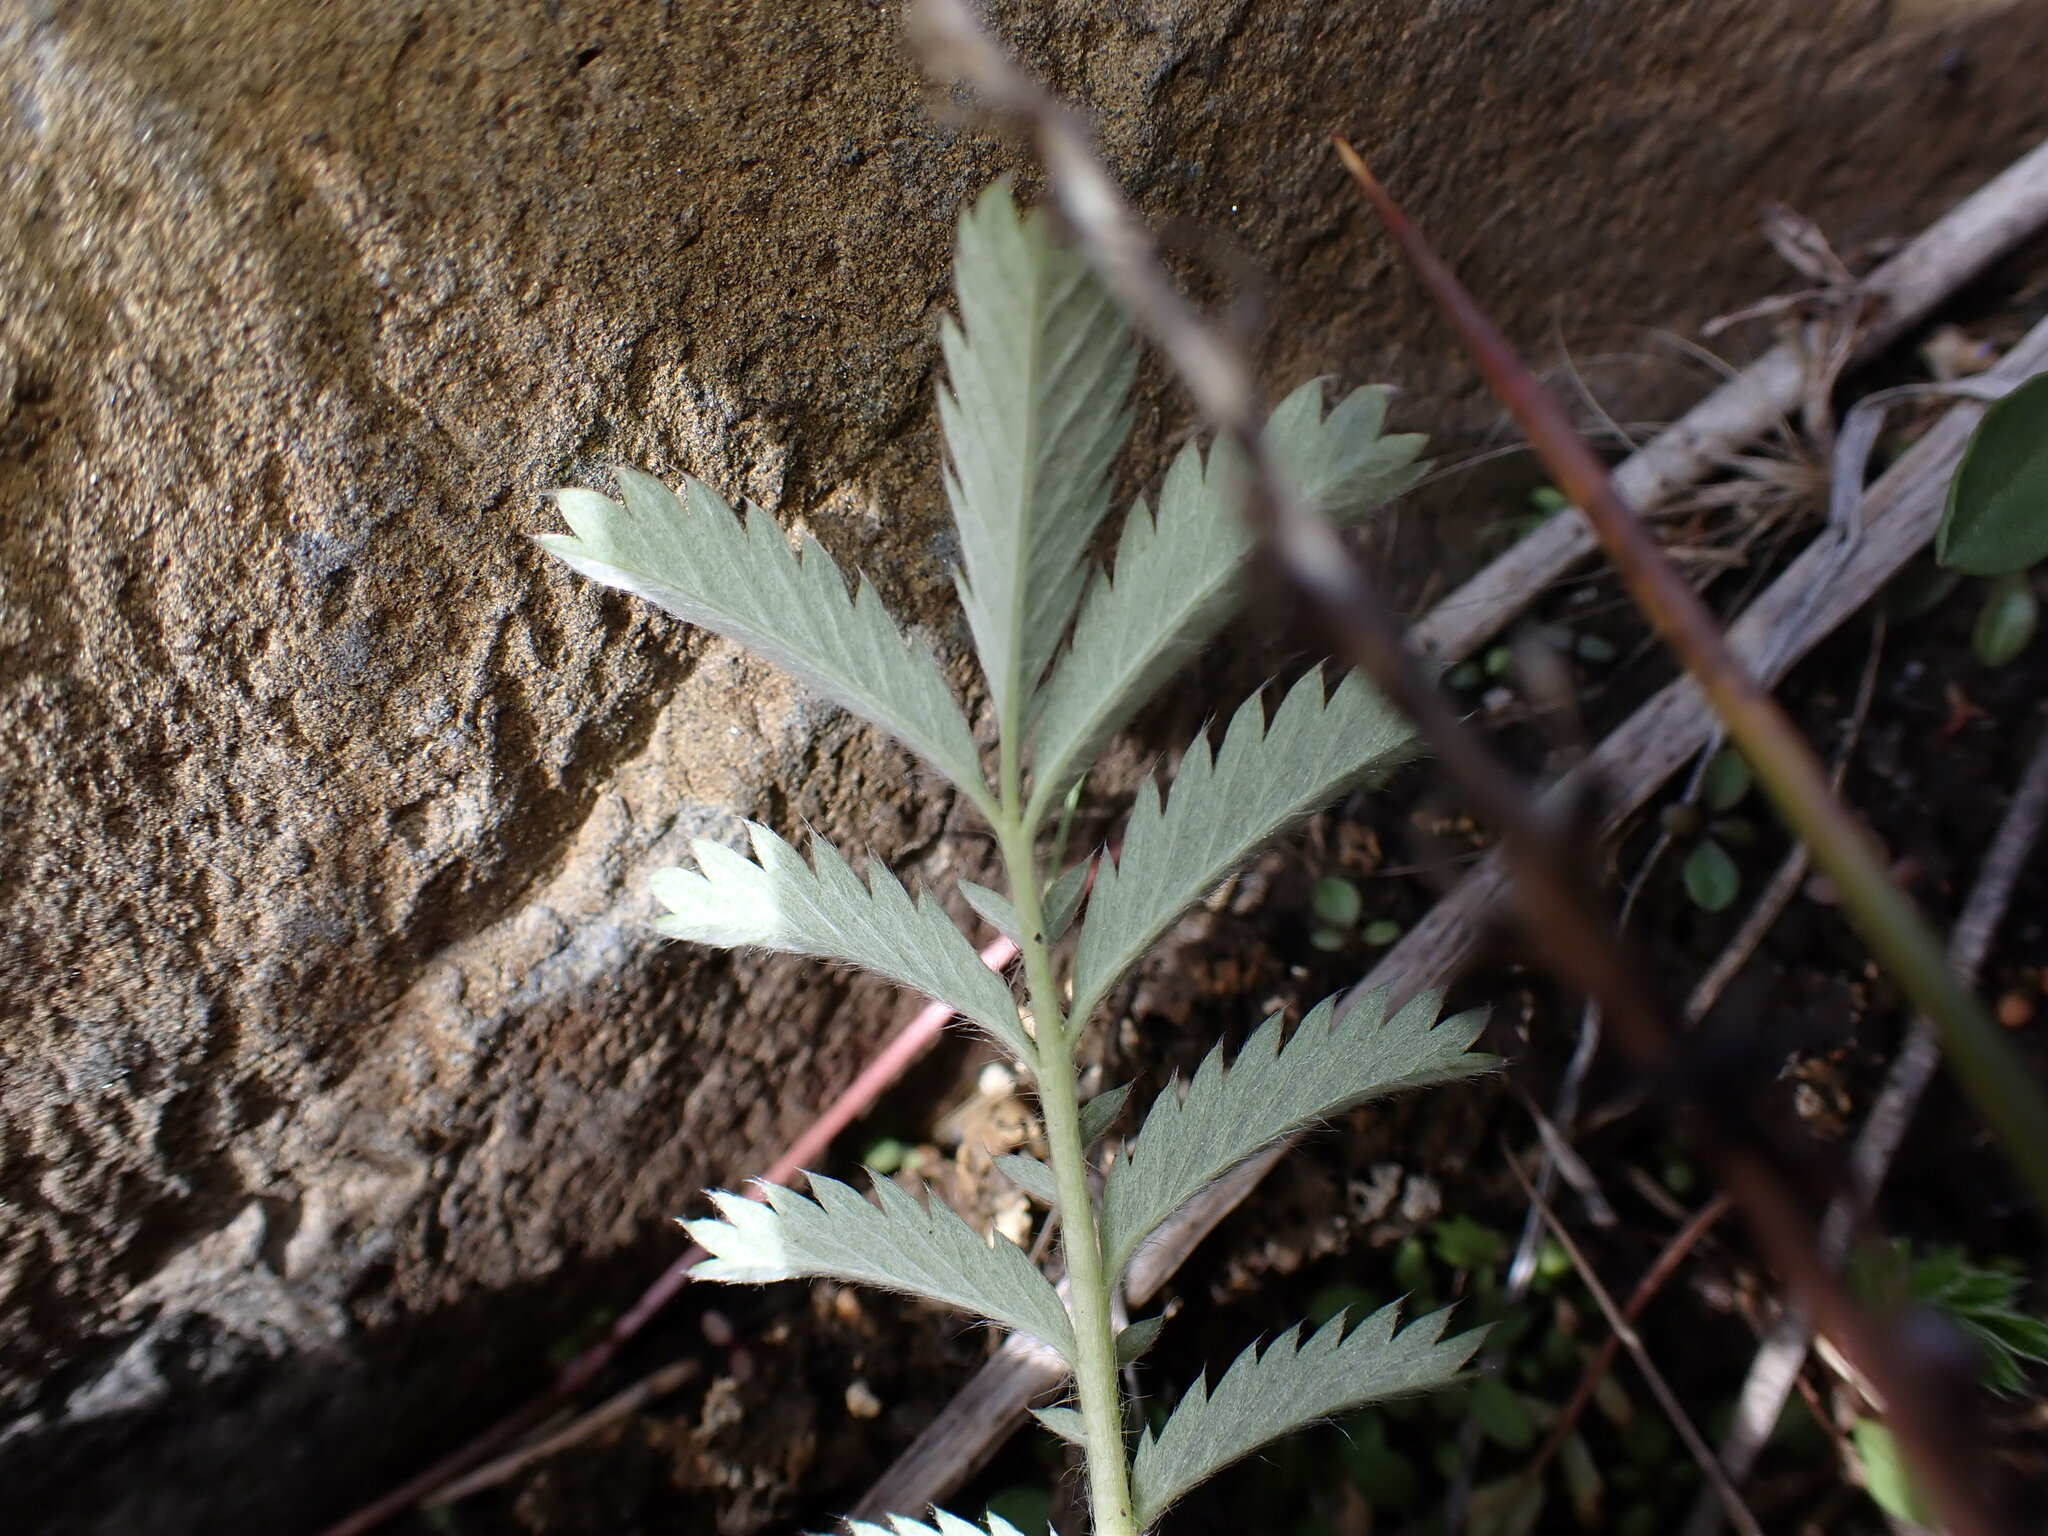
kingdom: Plantae
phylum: Tracheophyta
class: Magnoliopsida
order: Rosales
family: Rosaceae
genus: Argentina
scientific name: Argentina anserina
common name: Common silverweed
